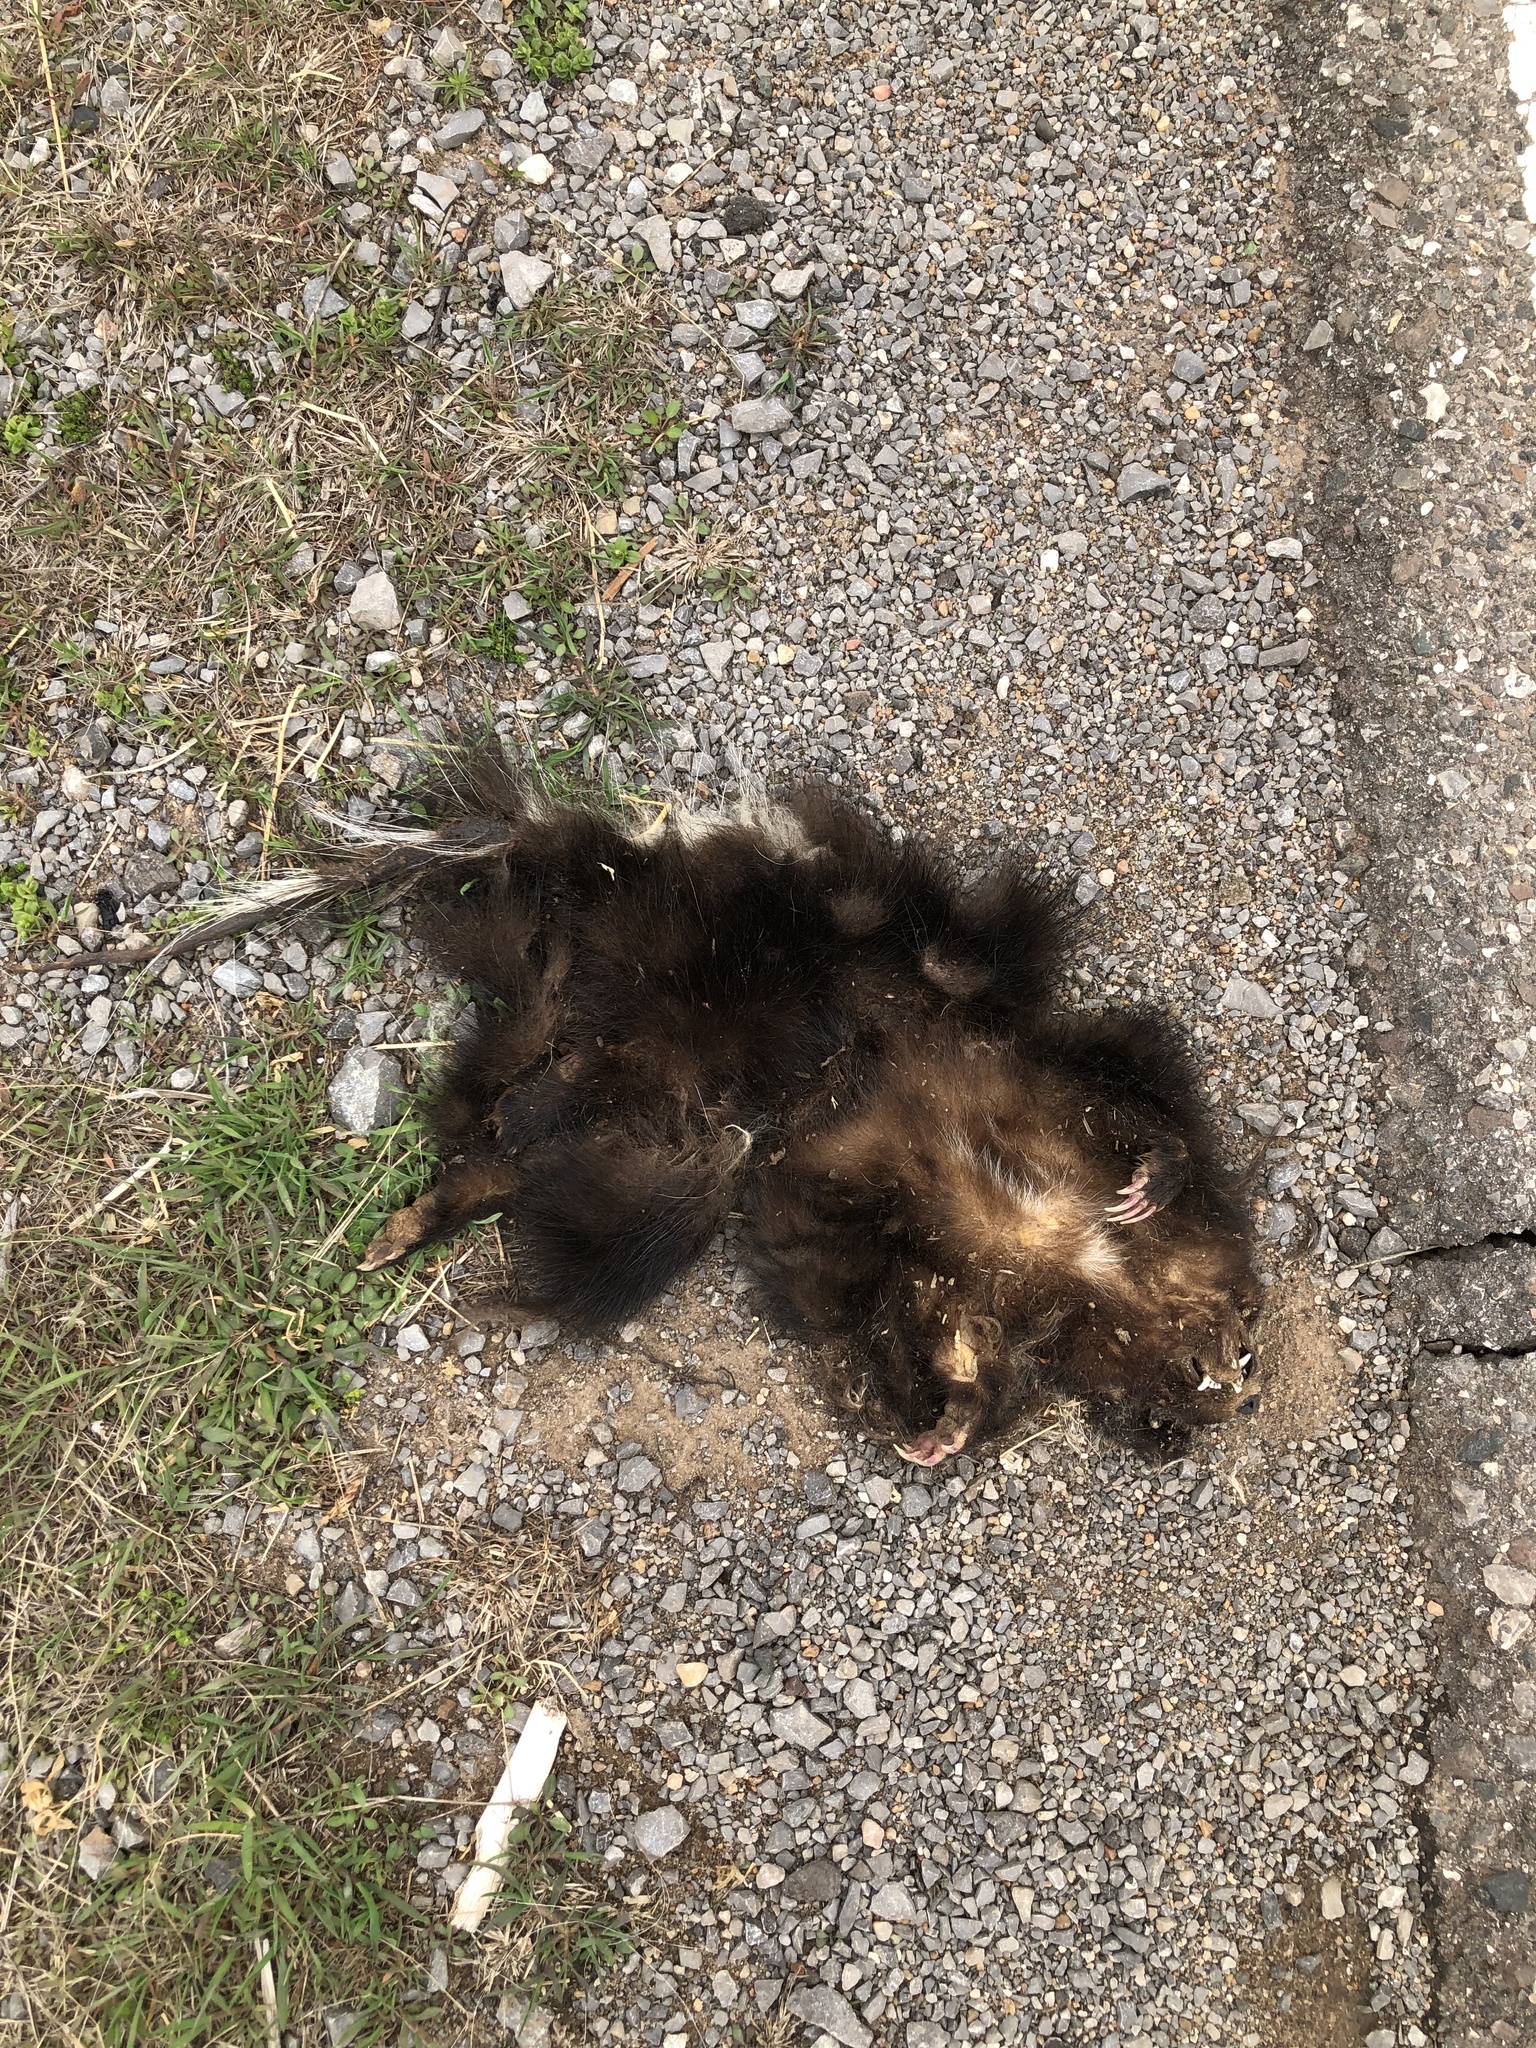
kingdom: Animalia
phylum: Chordata
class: Mammalia
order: Carnivora
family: Mephitidae
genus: Mephitis
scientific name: Mephitis mephitis
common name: Striped skunk
